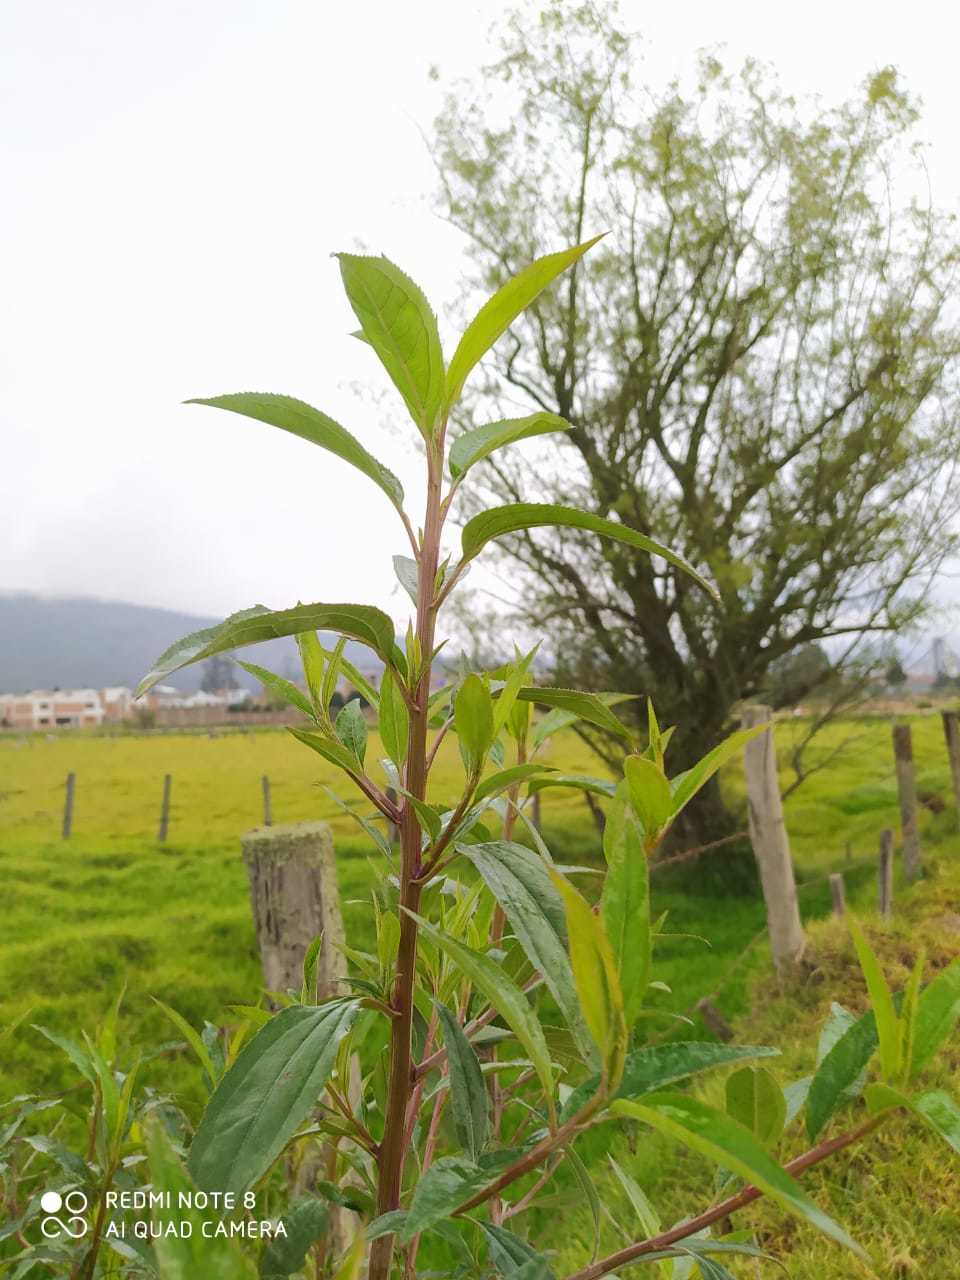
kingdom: Plantae
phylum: Tracheophyta
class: Magnoliopsida
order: Asterales
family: Asteraceae
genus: Baccharis
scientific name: Baccharis latifolia
